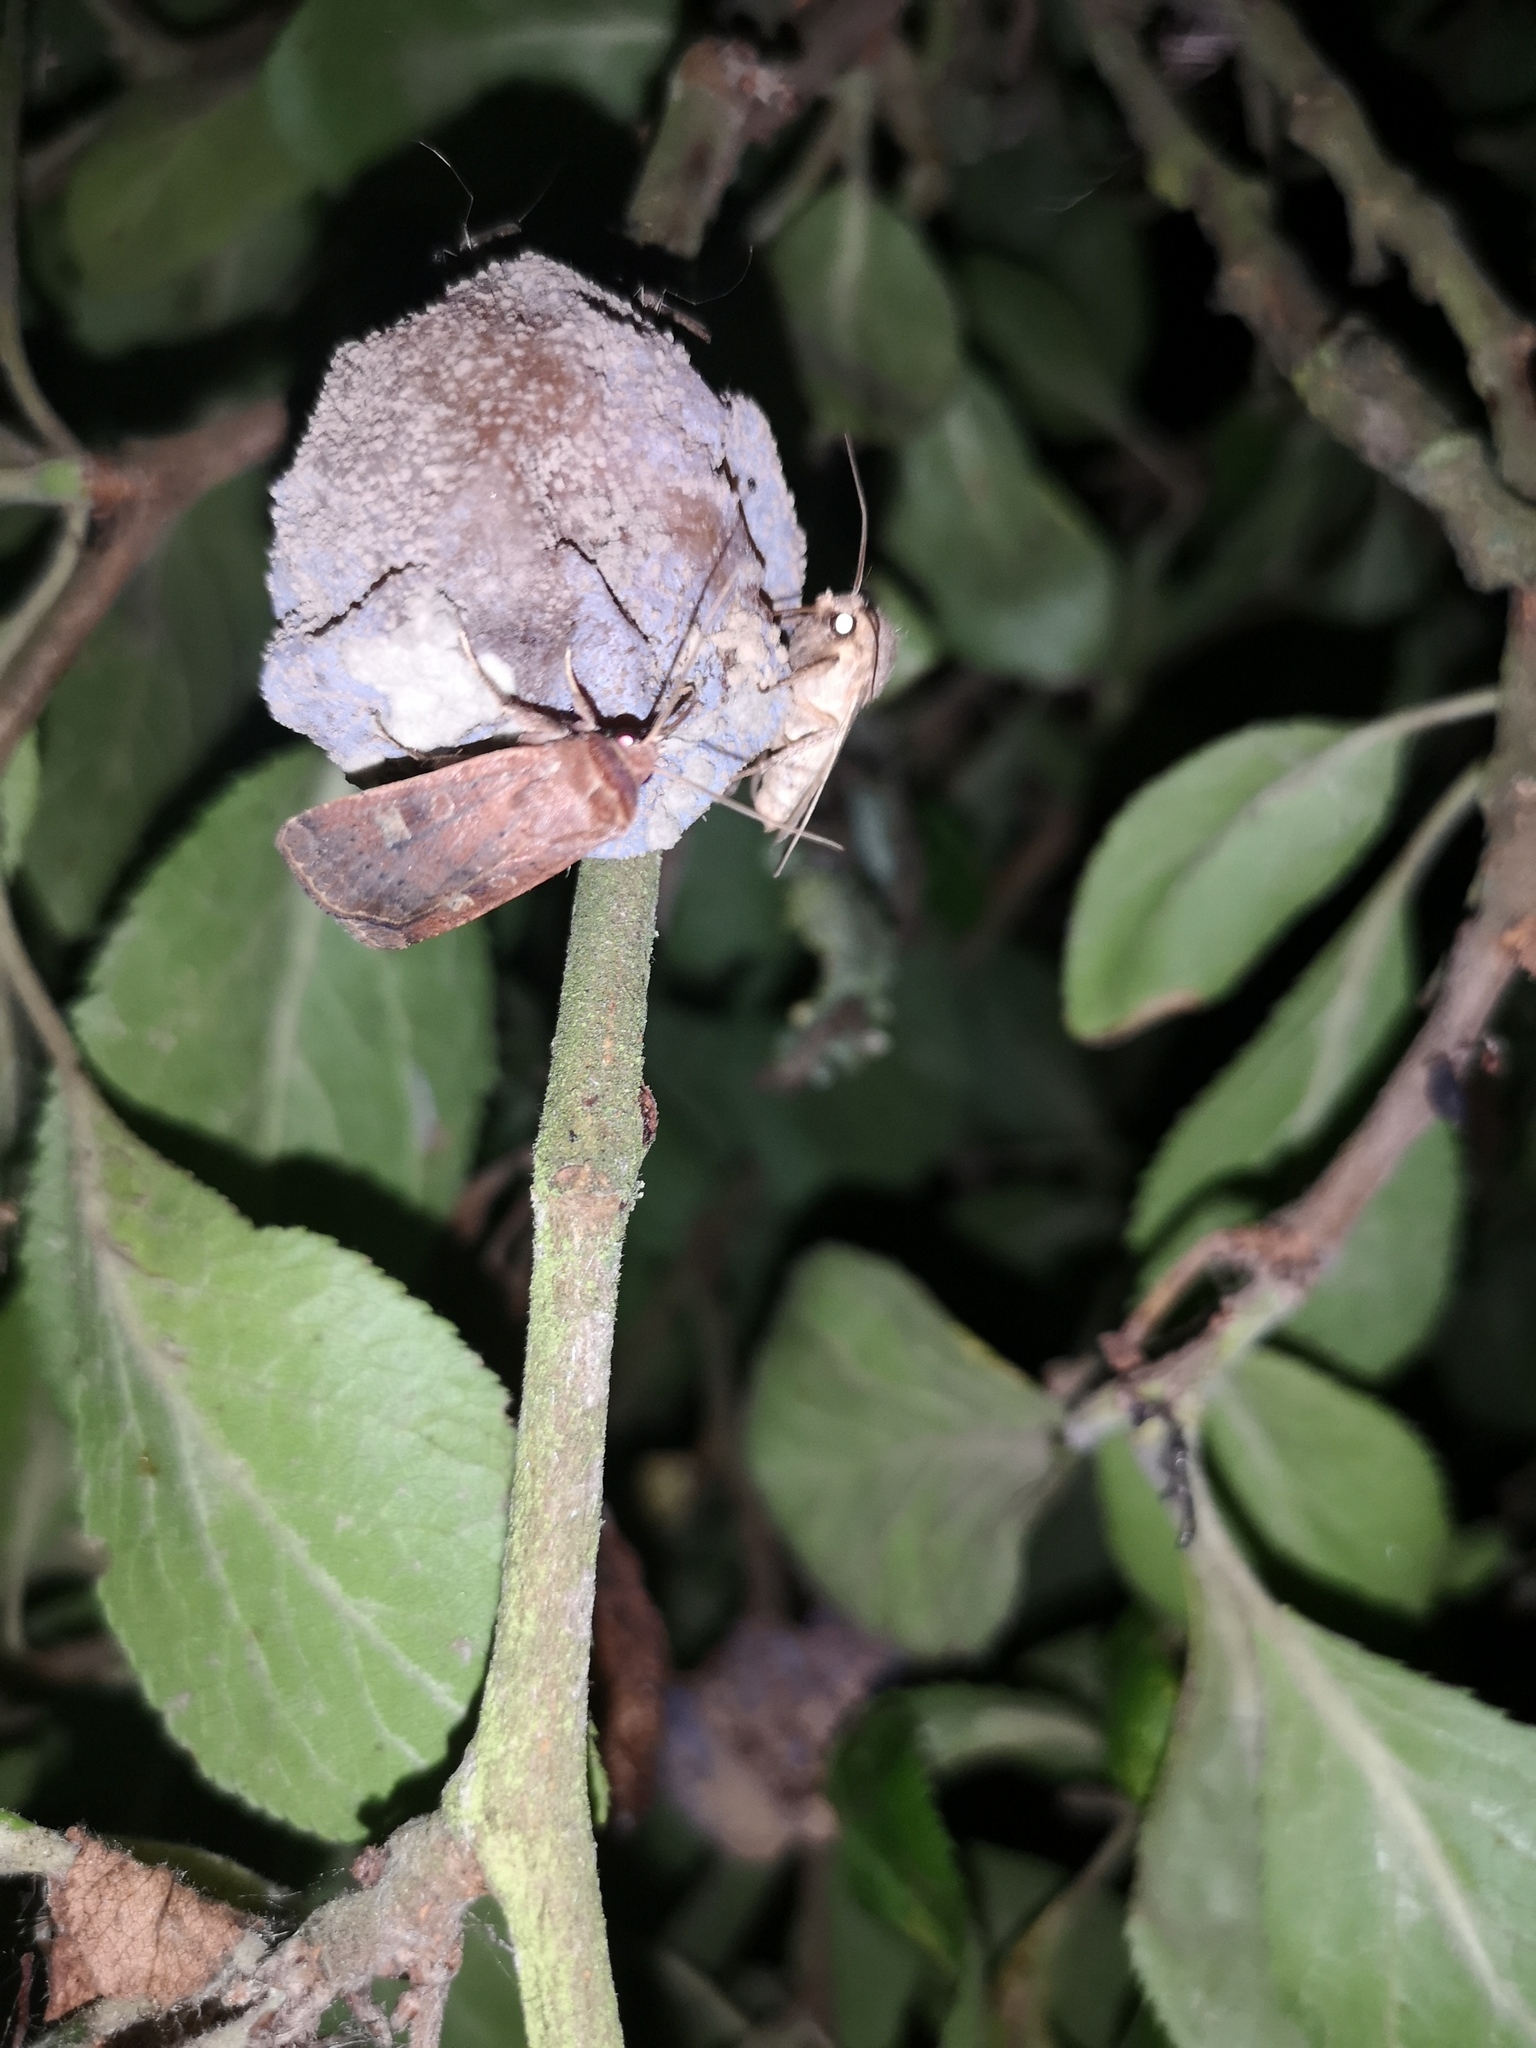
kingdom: Animalia
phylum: Arthropoda
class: Insecta
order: Lepidoptera
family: Noctuidae
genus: Xestia
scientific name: Xestia xanthographa
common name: Square-spot rustic
